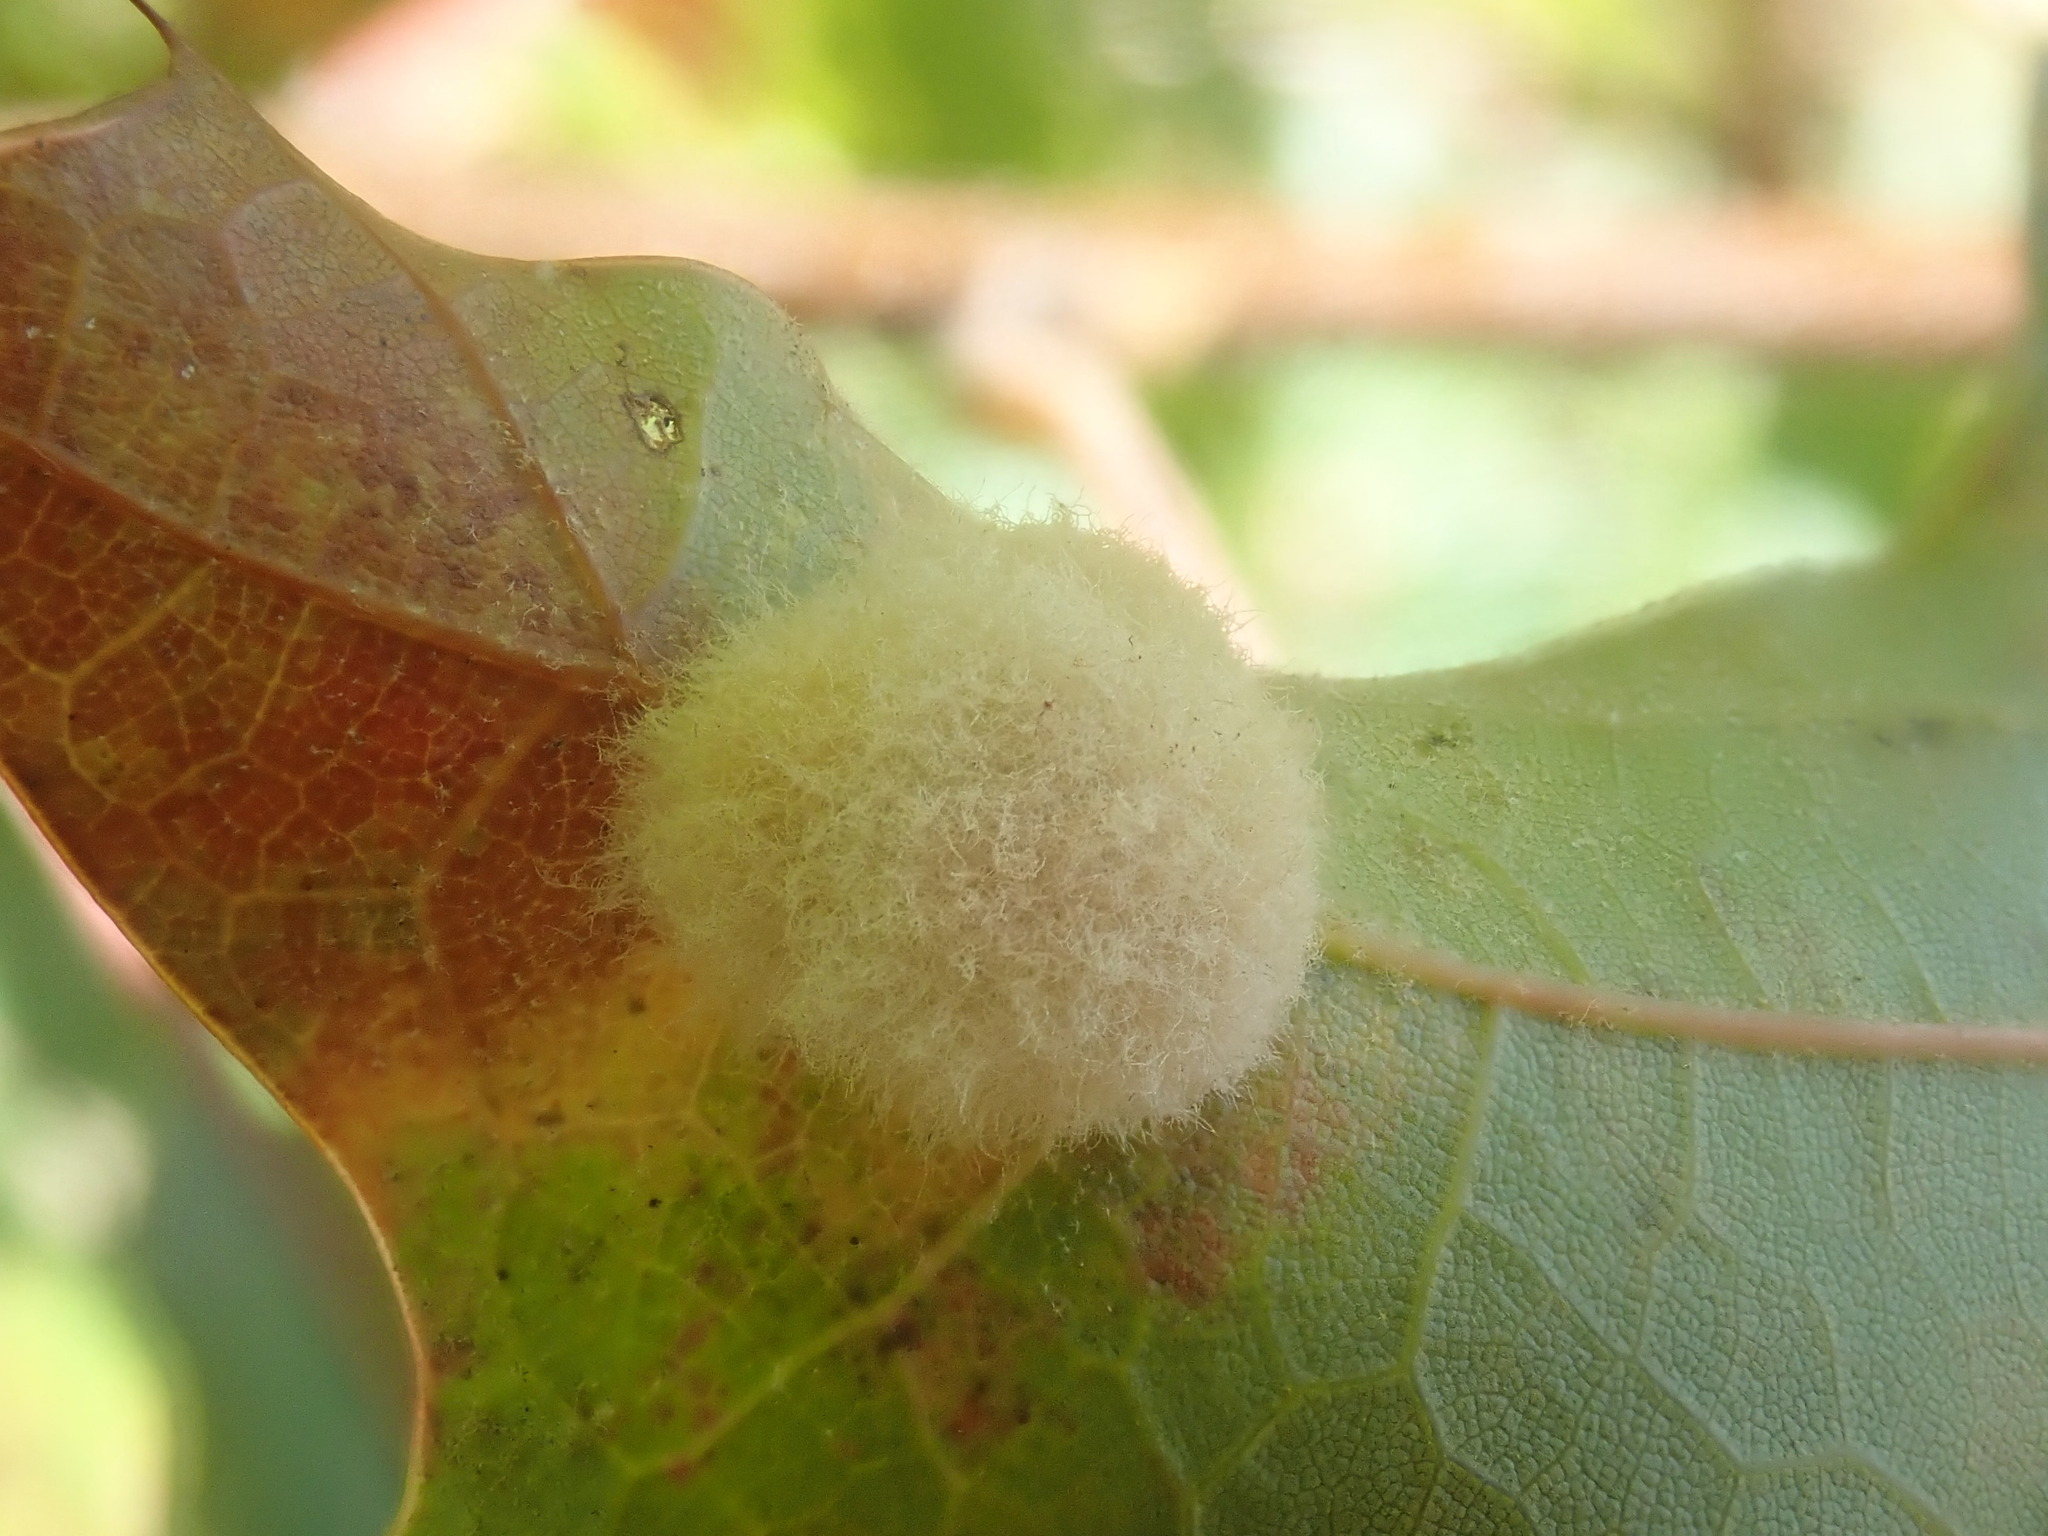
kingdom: Animalia
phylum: Arthropoda
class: Insecta
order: Hymenoptera
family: Cynipidae
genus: Callirhytis
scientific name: Callirhytis
